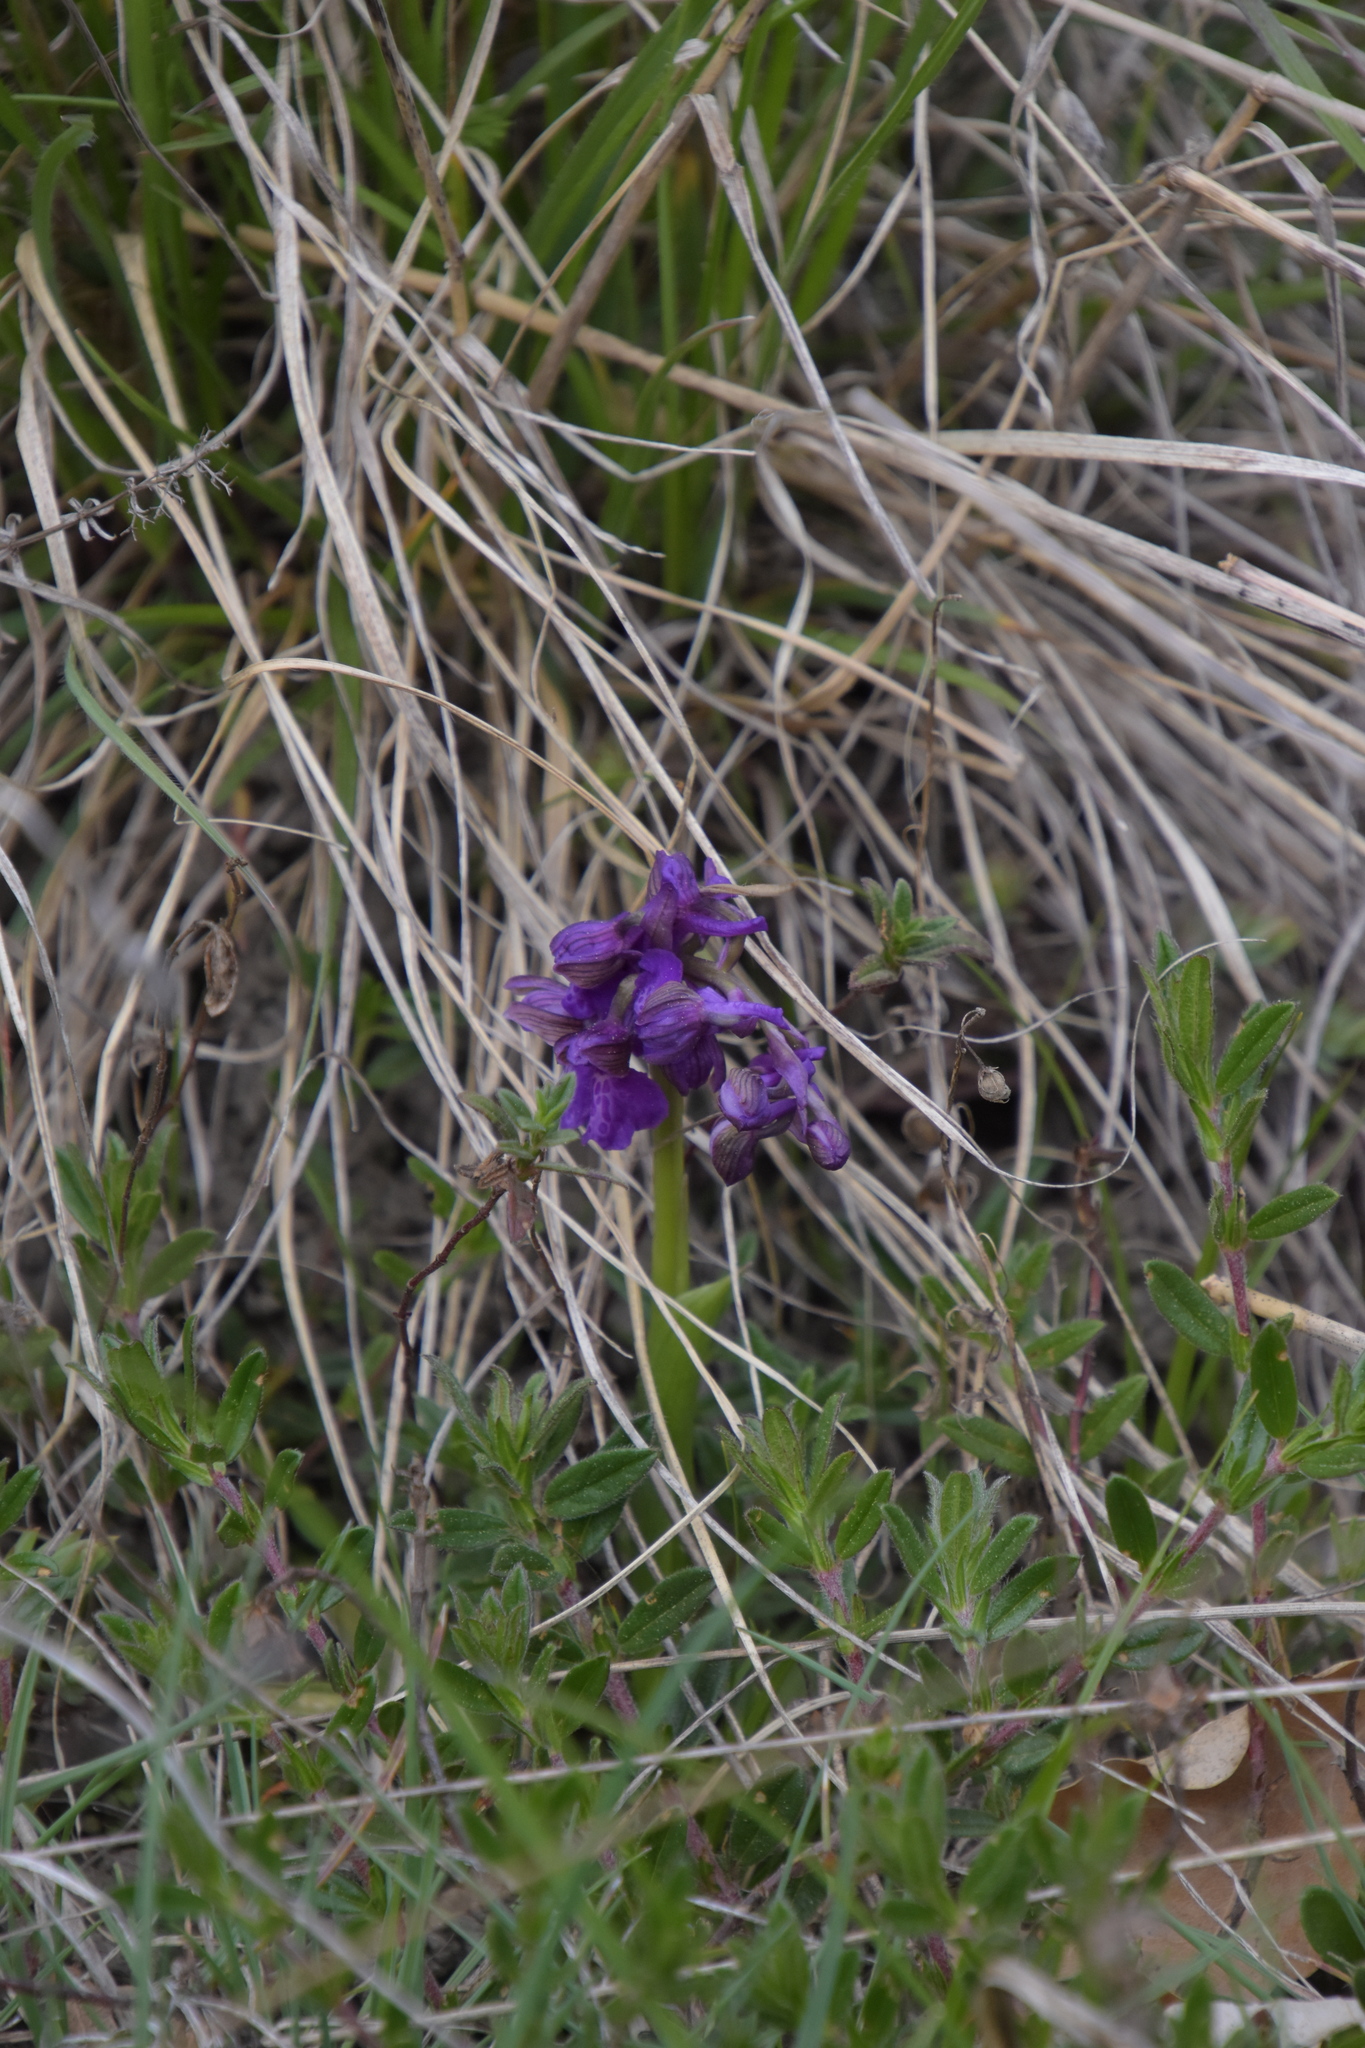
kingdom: Plantae
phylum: Tracheophyta
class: Liliopsida
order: Asparagales
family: Orchidaceae
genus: Anacamptis
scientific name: Anacamptis morio
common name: Green-winged orchid
